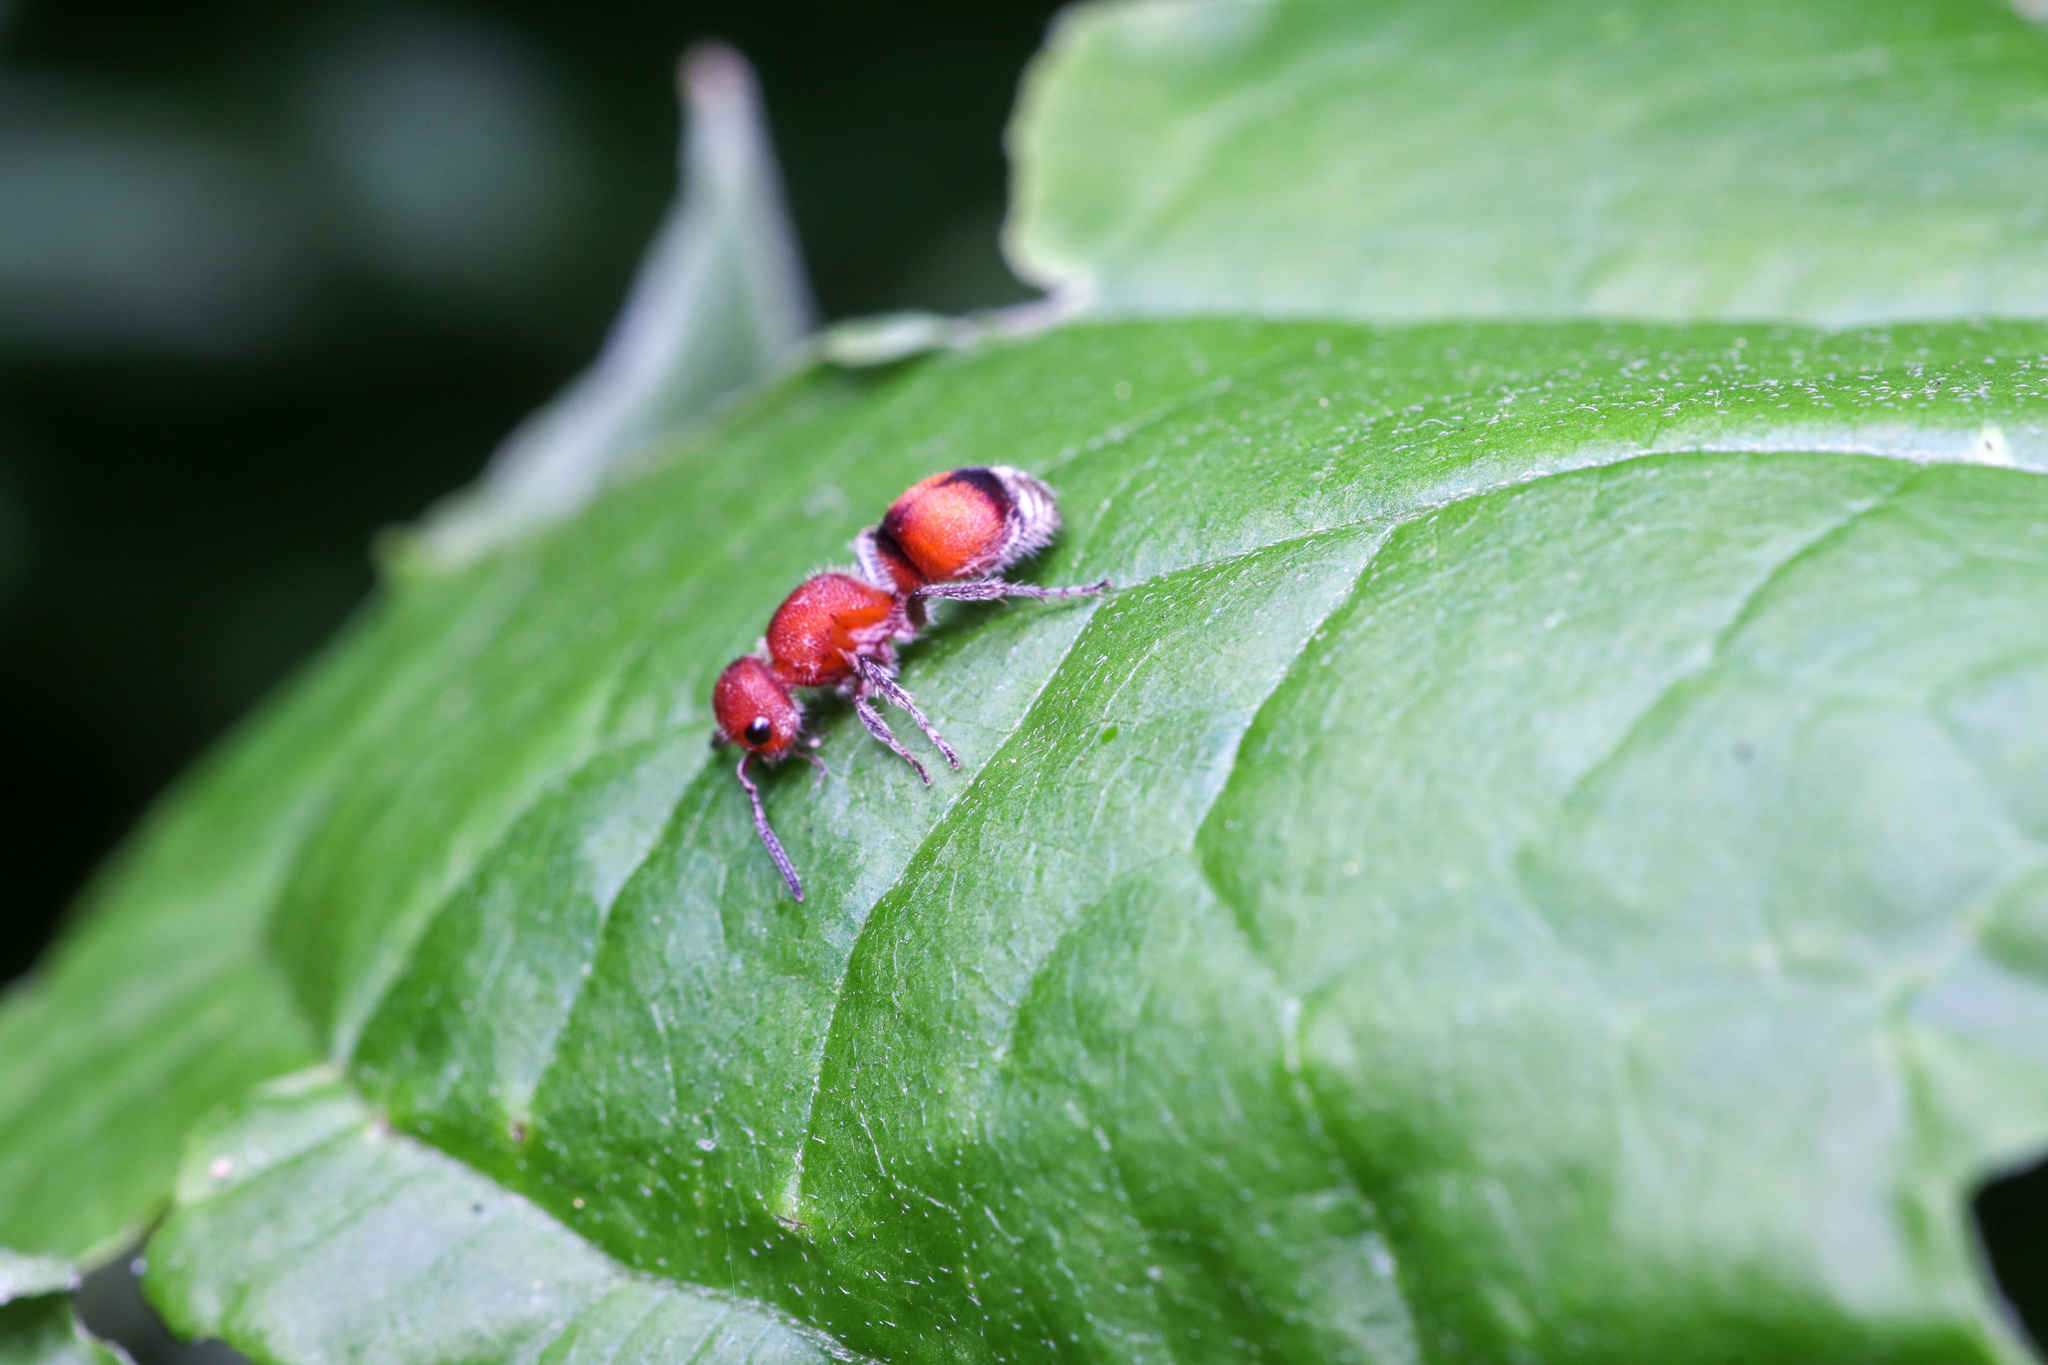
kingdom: Animalia
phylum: Arthropoda
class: Insecta
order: Hymenoptera
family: Mutillidae
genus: Pseudomethoca
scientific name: Pseudomethoca
